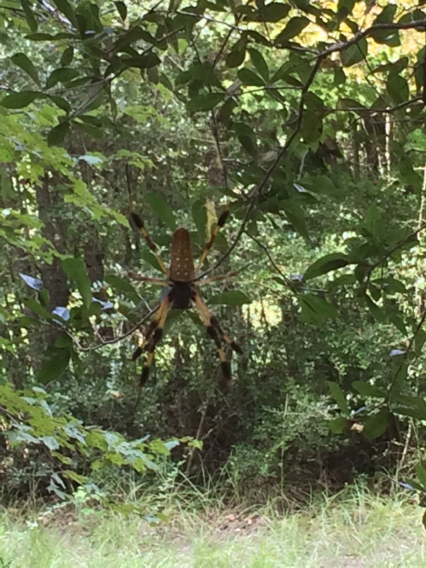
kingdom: Animalia
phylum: Arthropoda
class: Arachnida
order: Araneae
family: Araneidae
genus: Trichonephila
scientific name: Trichonephila clavipes
